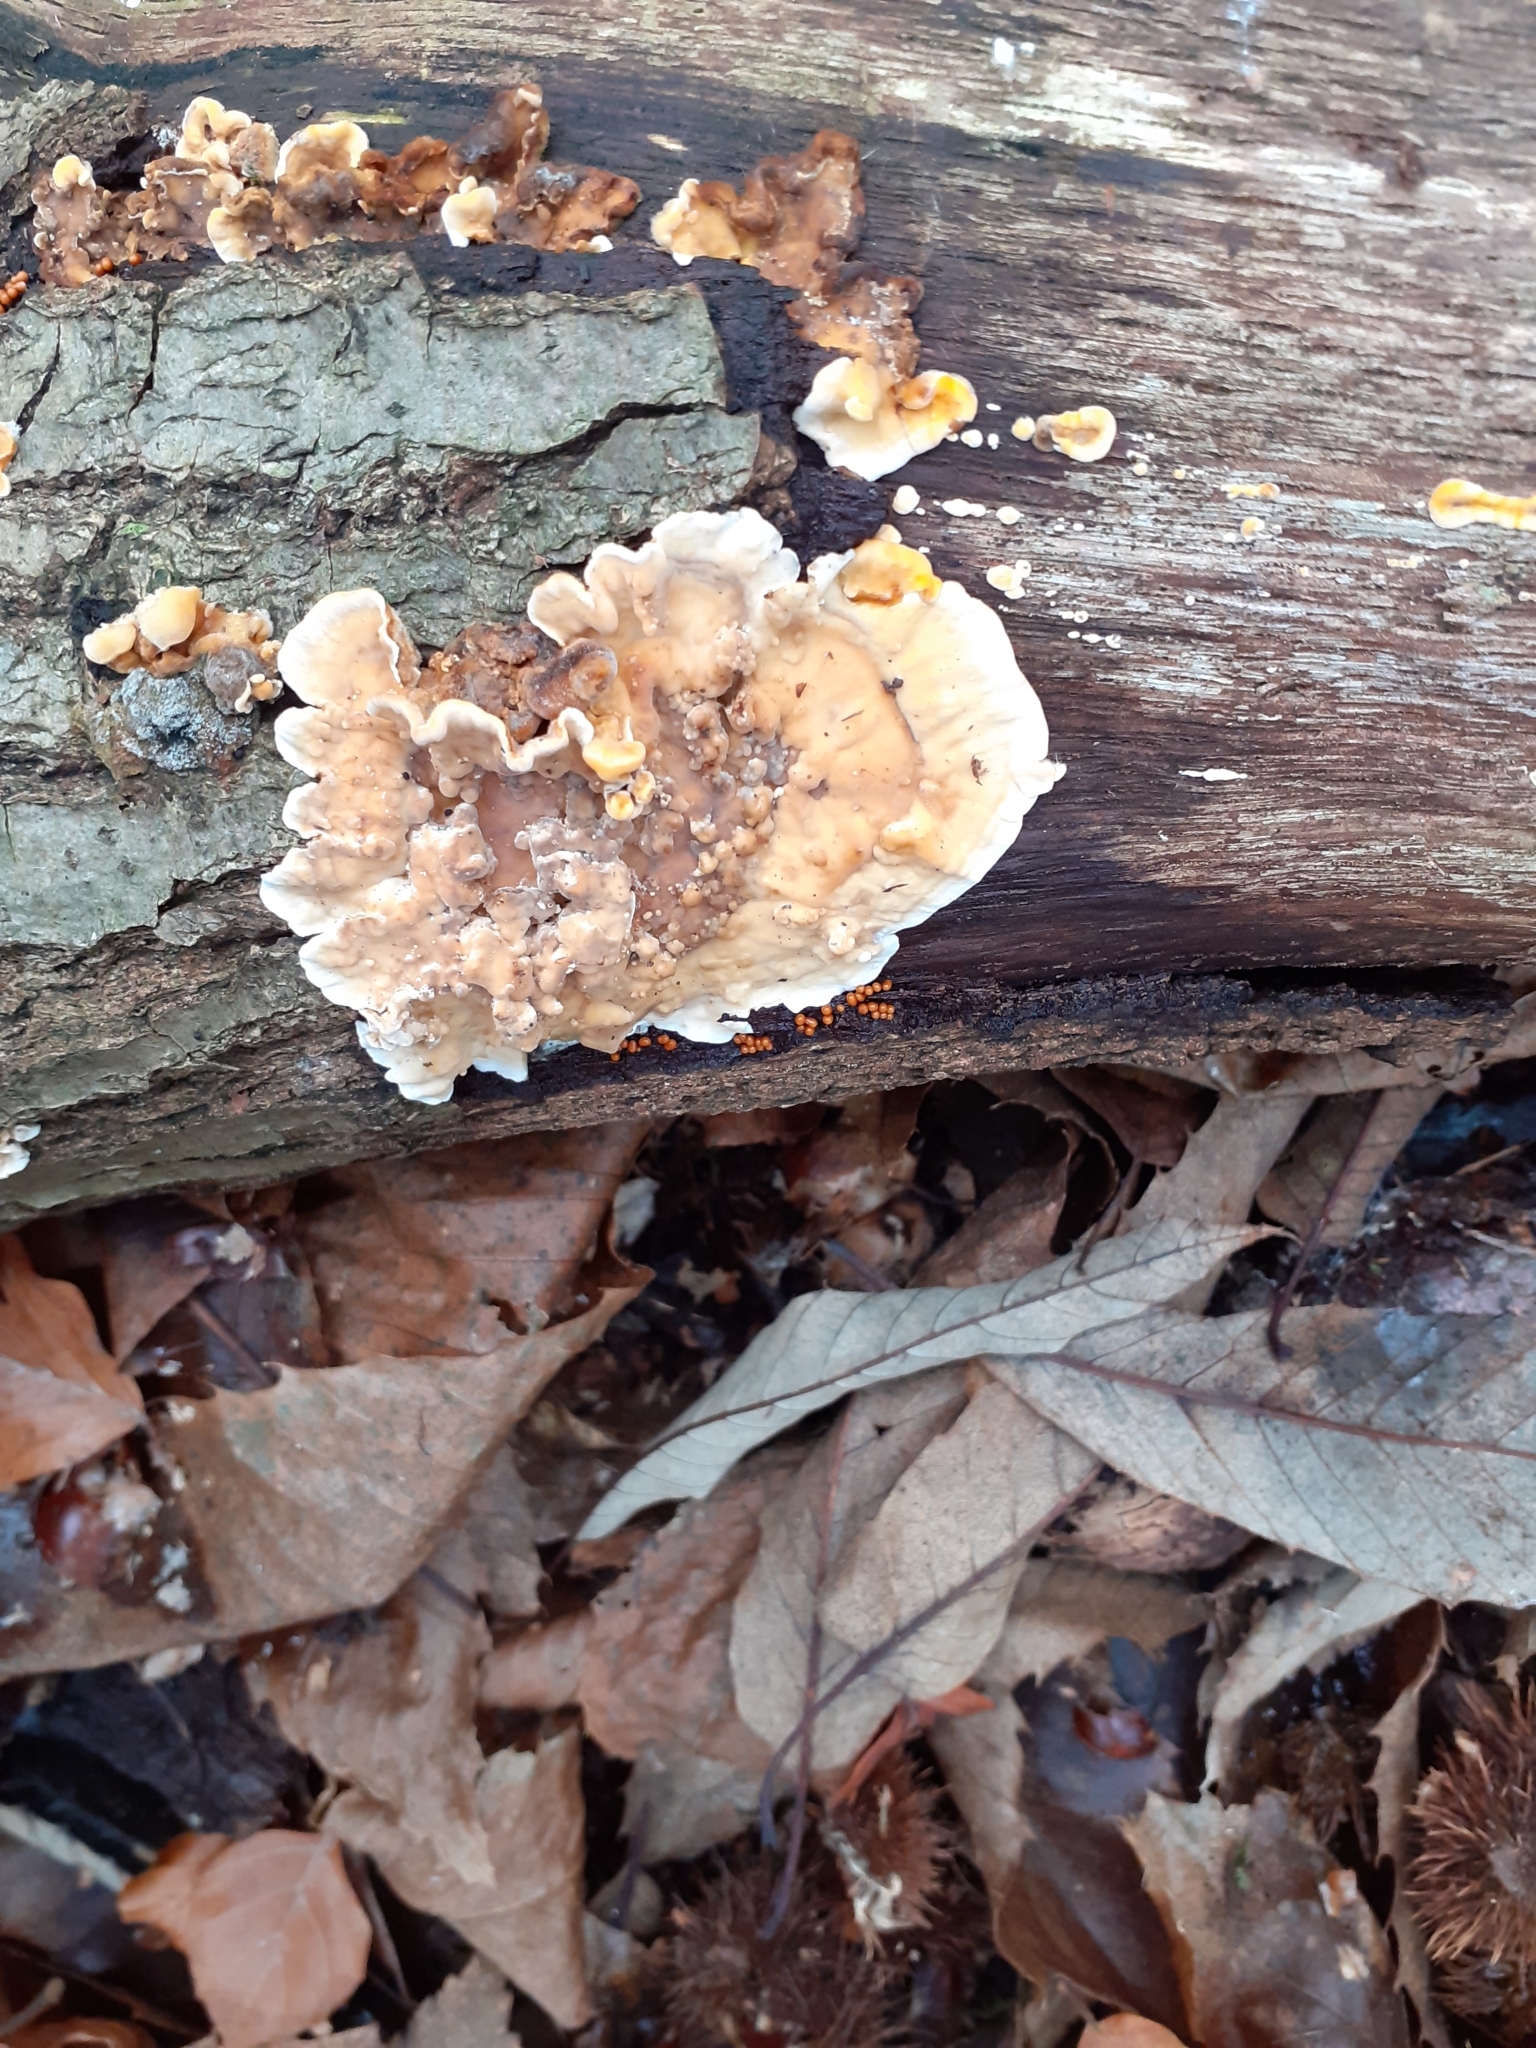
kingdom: Fungi
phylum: Basidiomycota
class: Agaricomycetes
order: Russulales
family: Stereaceae
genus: Stereum
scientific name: Stereum hirsutum
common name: Hairy curtain crust
